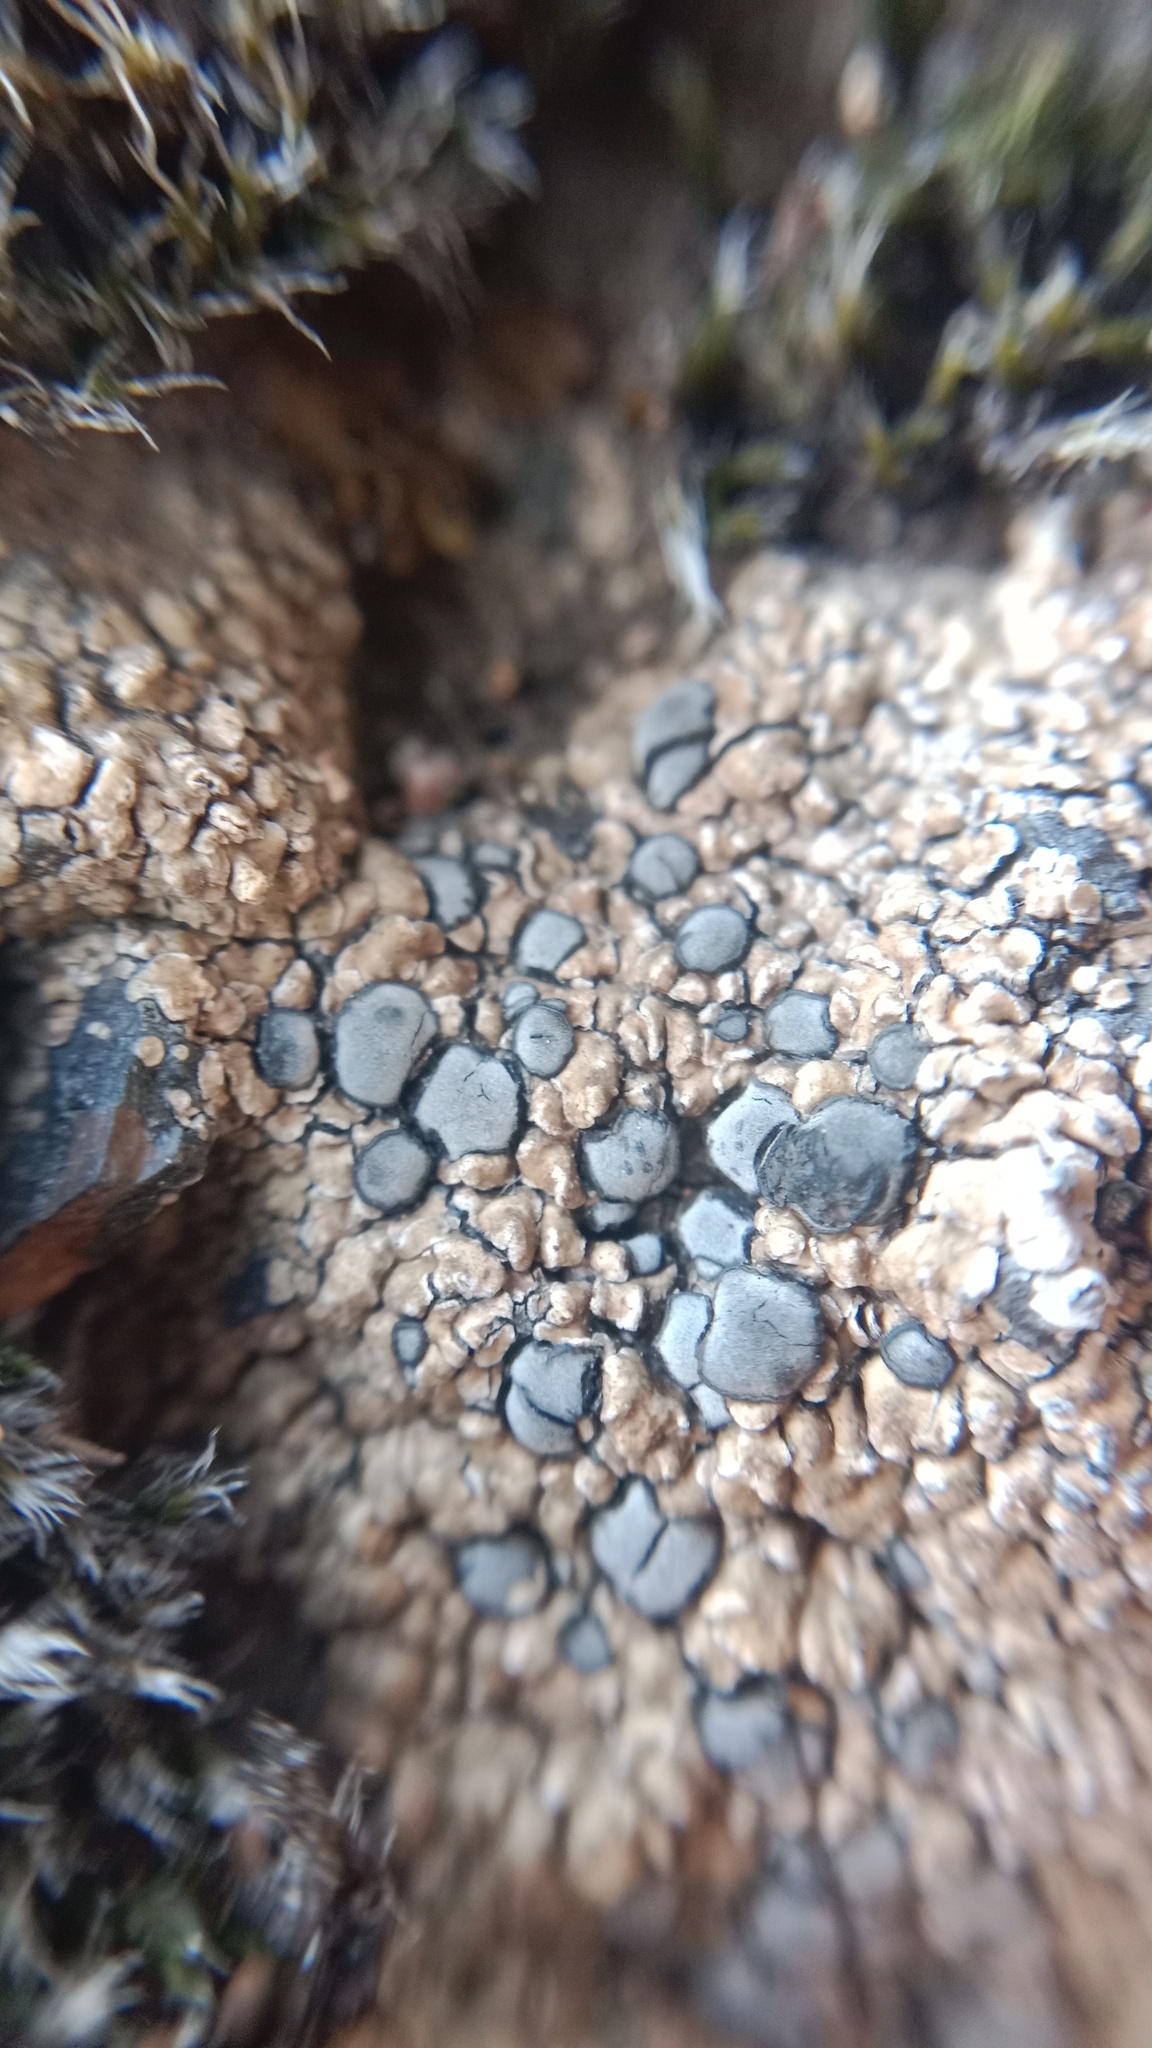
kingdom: Fungi
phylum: Ascomycota
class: Lecanoromycetes
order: Lecideales
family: Lecideaceae
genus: Lecidea
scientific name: Lecidea fuscoatra
